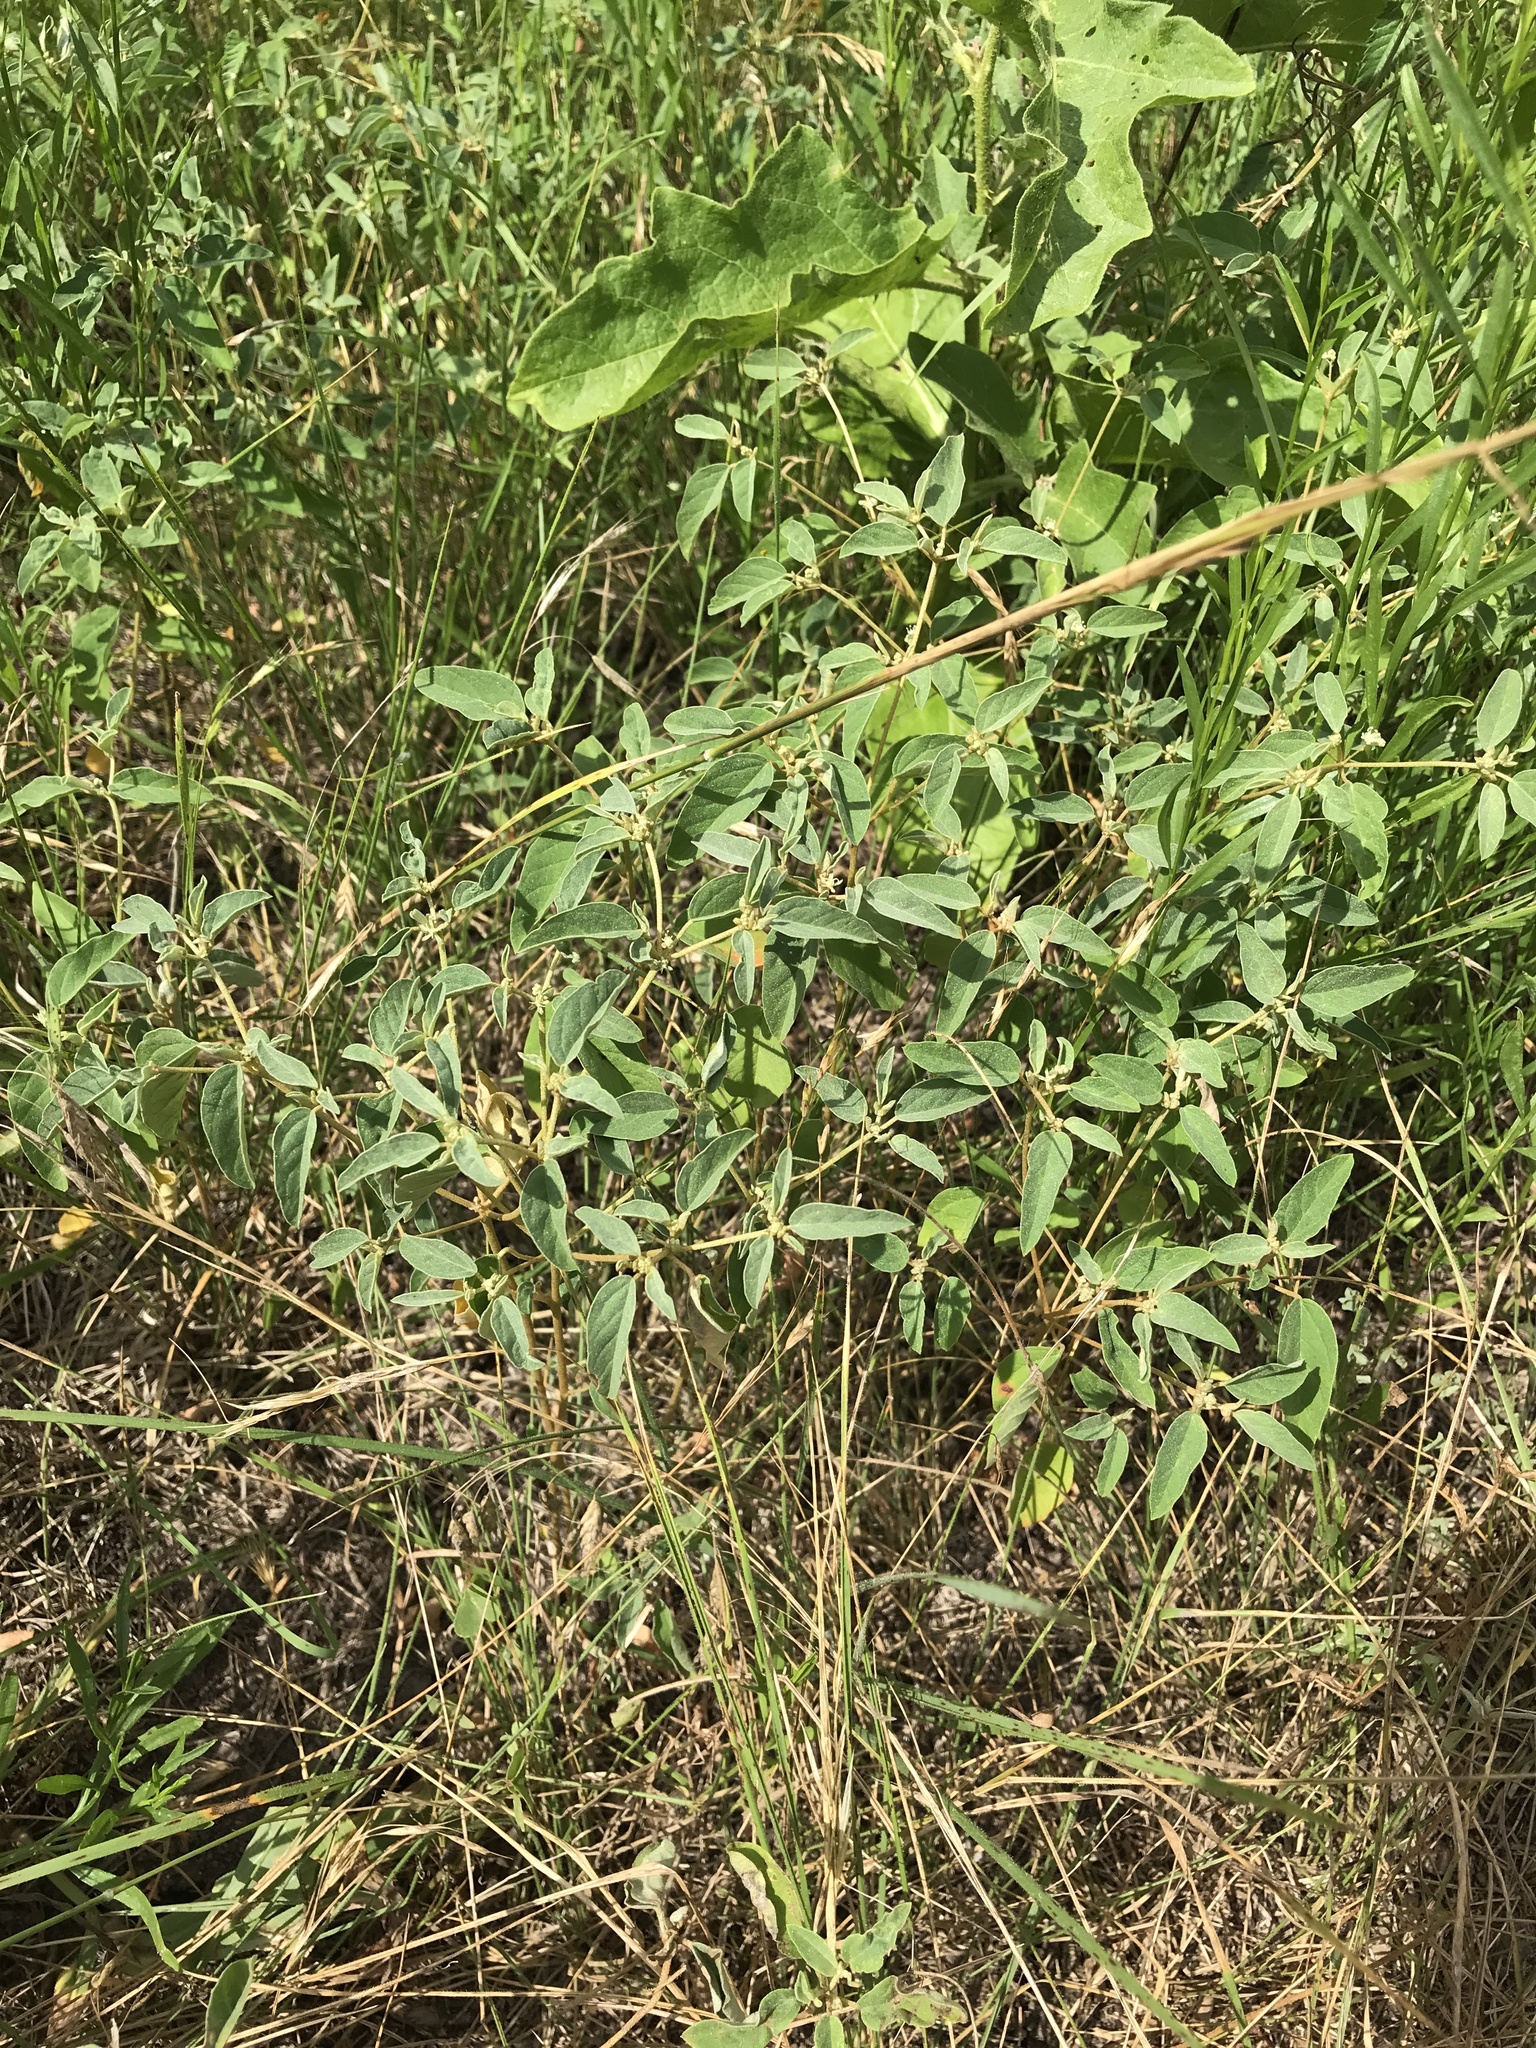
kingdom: Plantae
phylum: Tracheophyta
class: Magnoliopsida
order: Malpighiales
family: Euphorbiaceae
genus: Croton
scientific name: Croton monanthogynus
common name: One-seed croton
